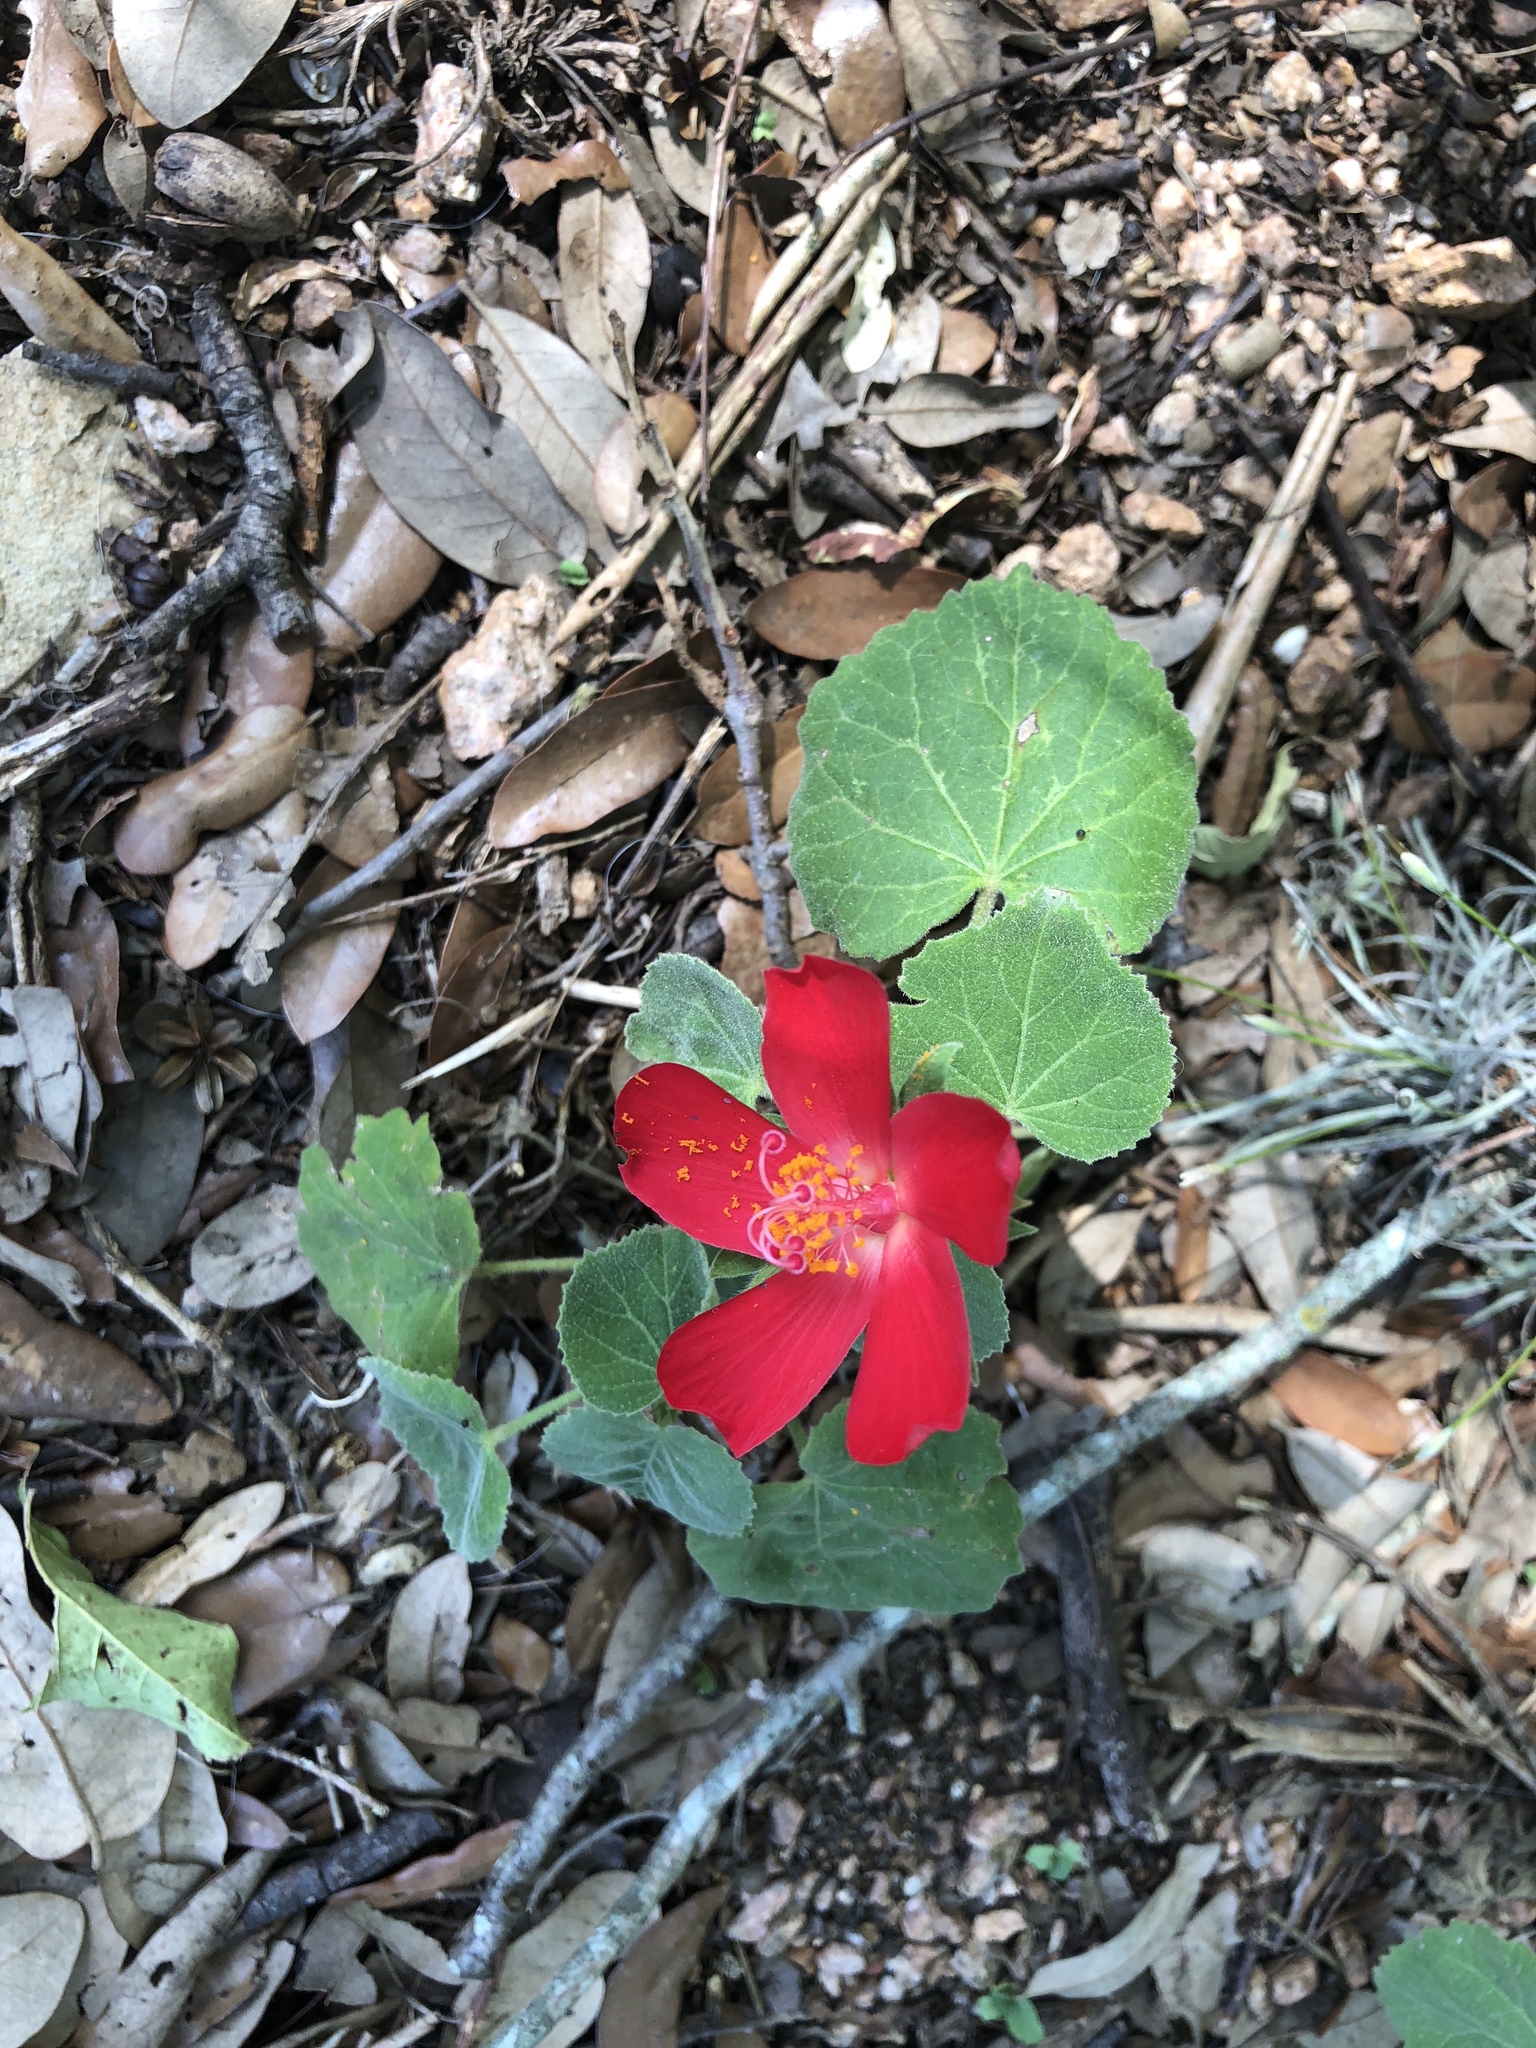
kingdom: Plantae
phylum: Tracheophyta
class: Magnoliopsida
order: Malvales
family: Malvaceae
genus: Hibiscus
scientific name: Hibiscus martianus
